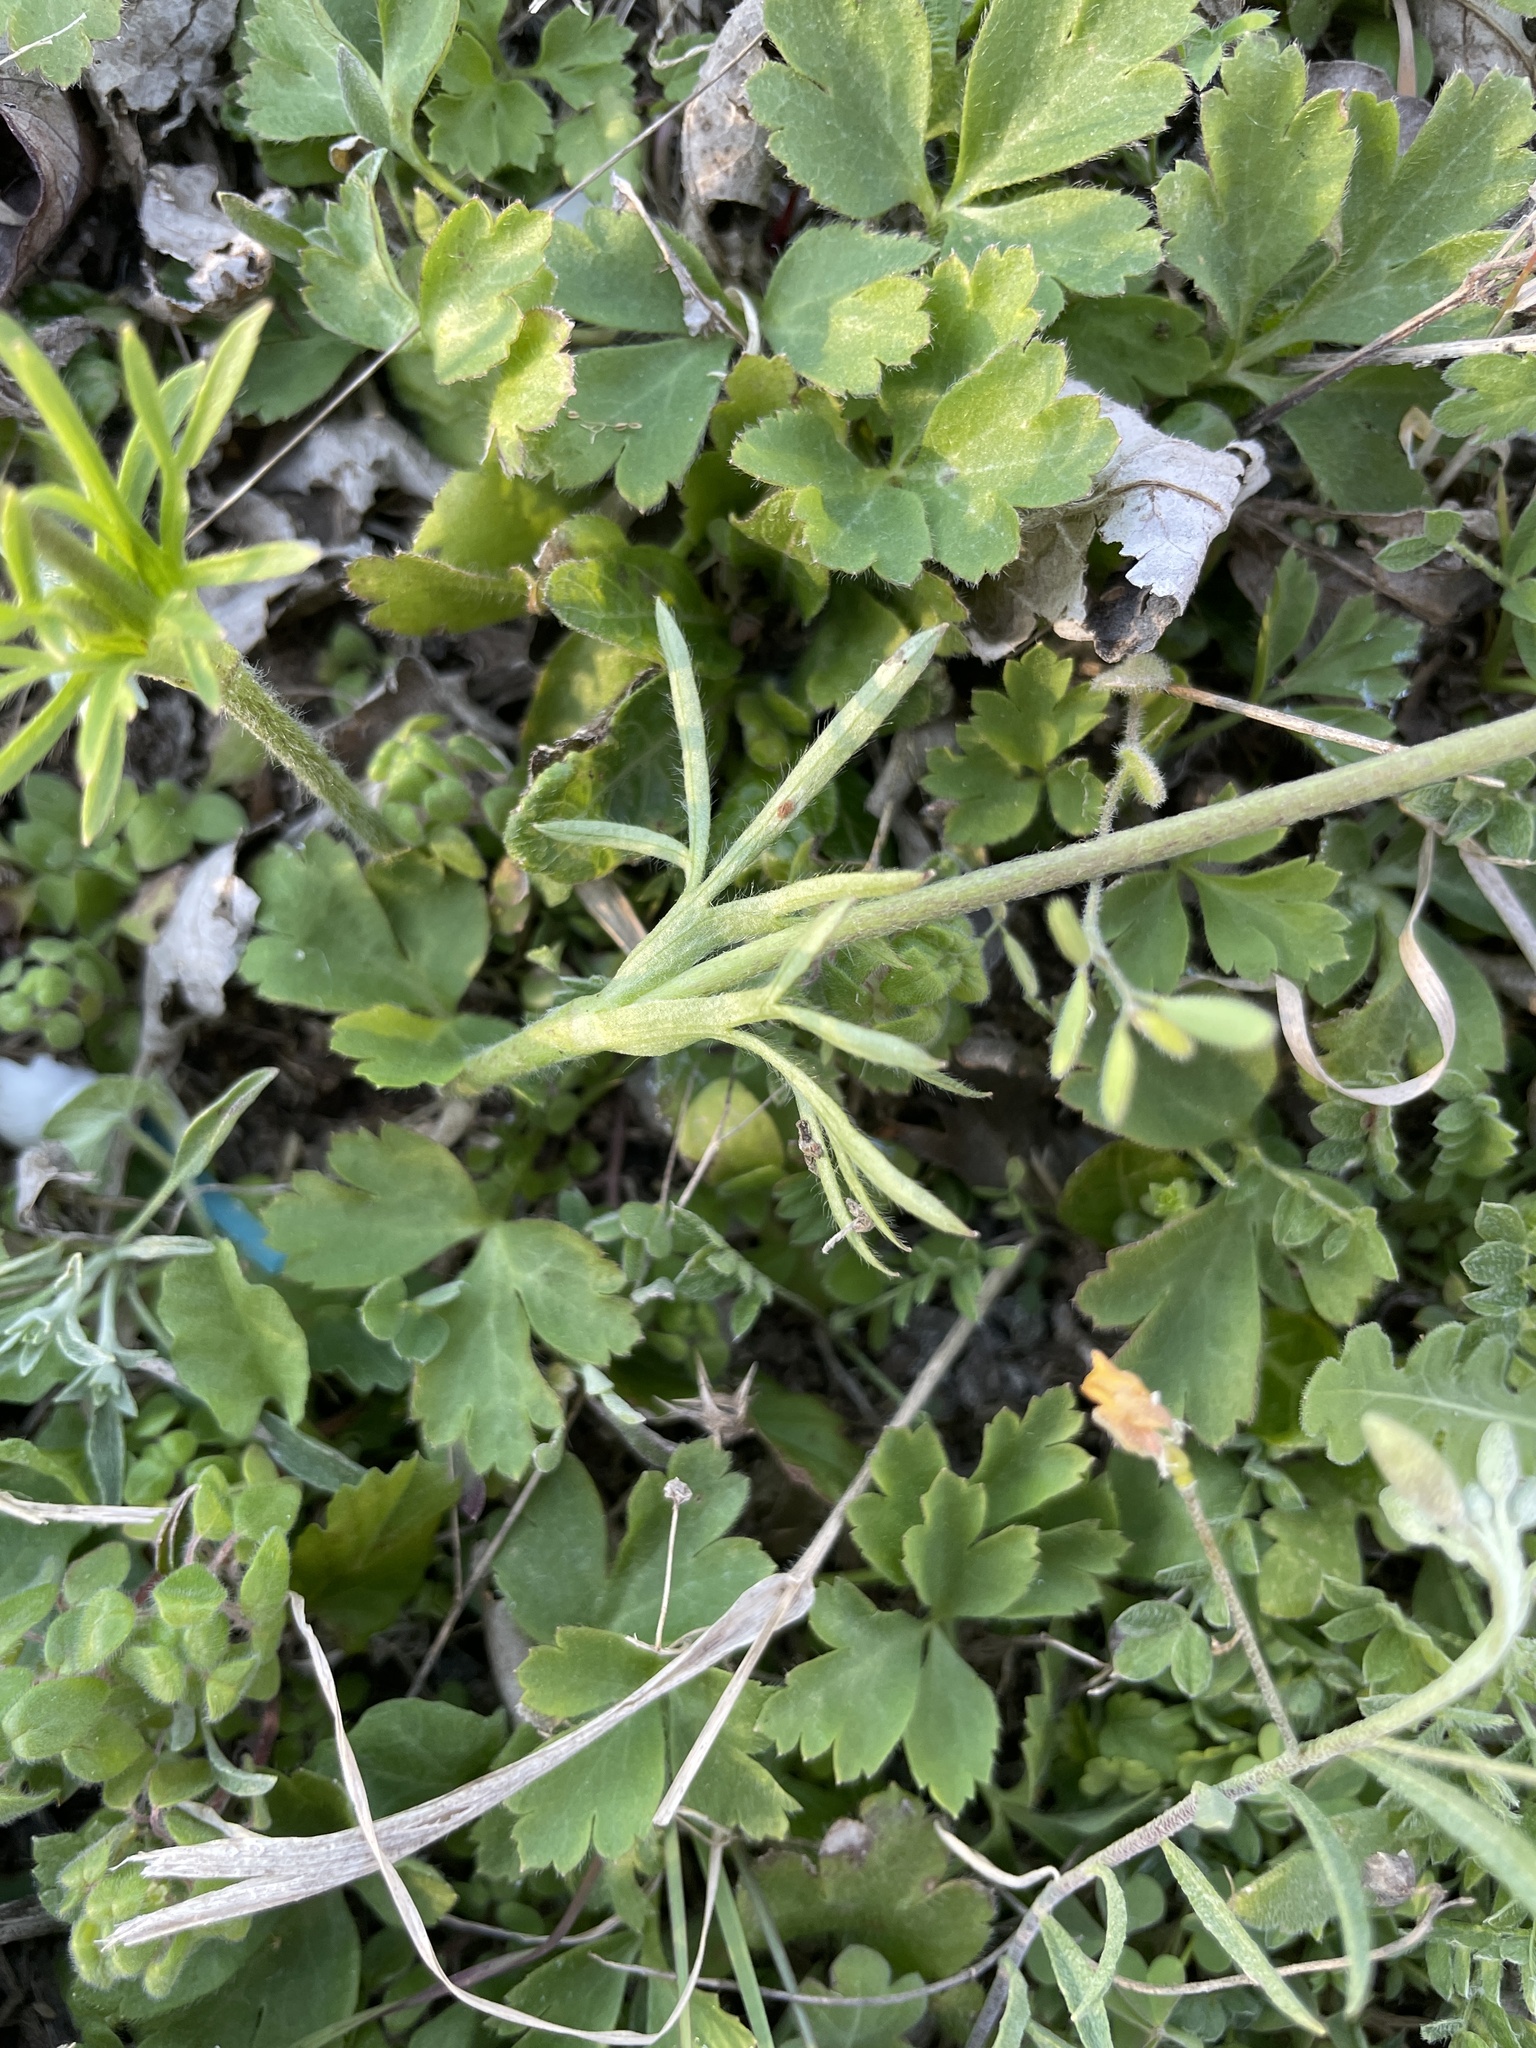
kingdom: Plantae
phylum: Tracheophyta
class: Magnoliopsida
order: Ranunculales
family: Ranunculaceae
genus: Anemone
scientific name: Anemone berlandieri
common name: Ten-petal anemone
